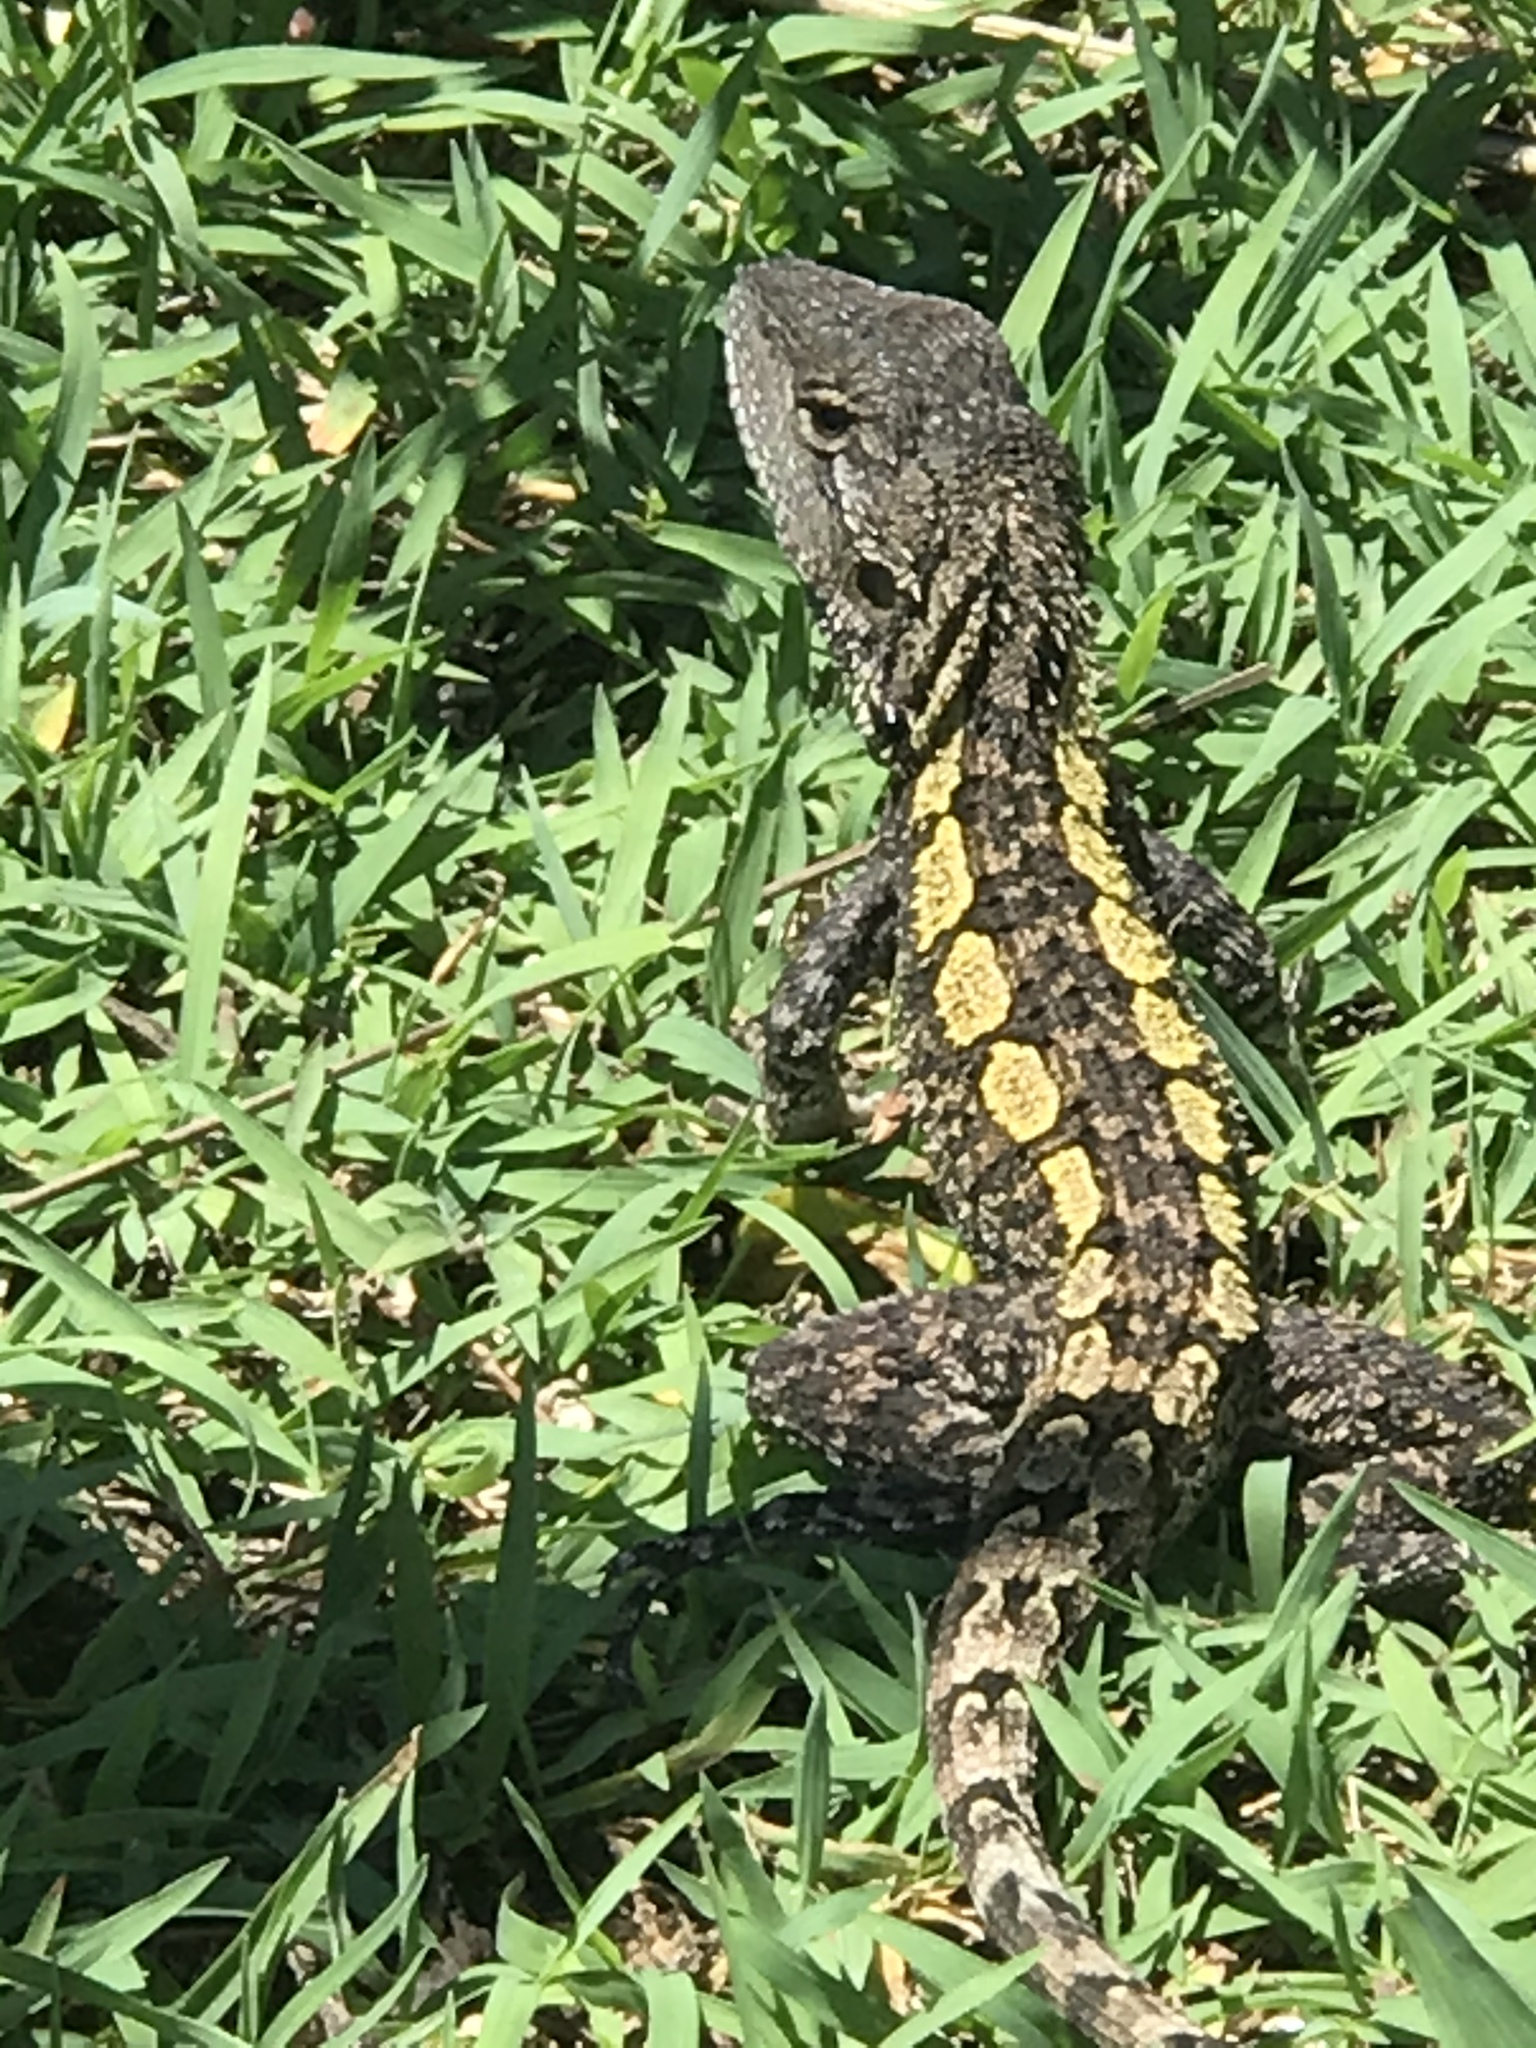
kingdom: Animalia
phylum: Chordata
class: Squamata
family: Agamidae
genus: Amphibolurus
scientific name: Amphibolurus muricatus
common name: Jacky lizard
